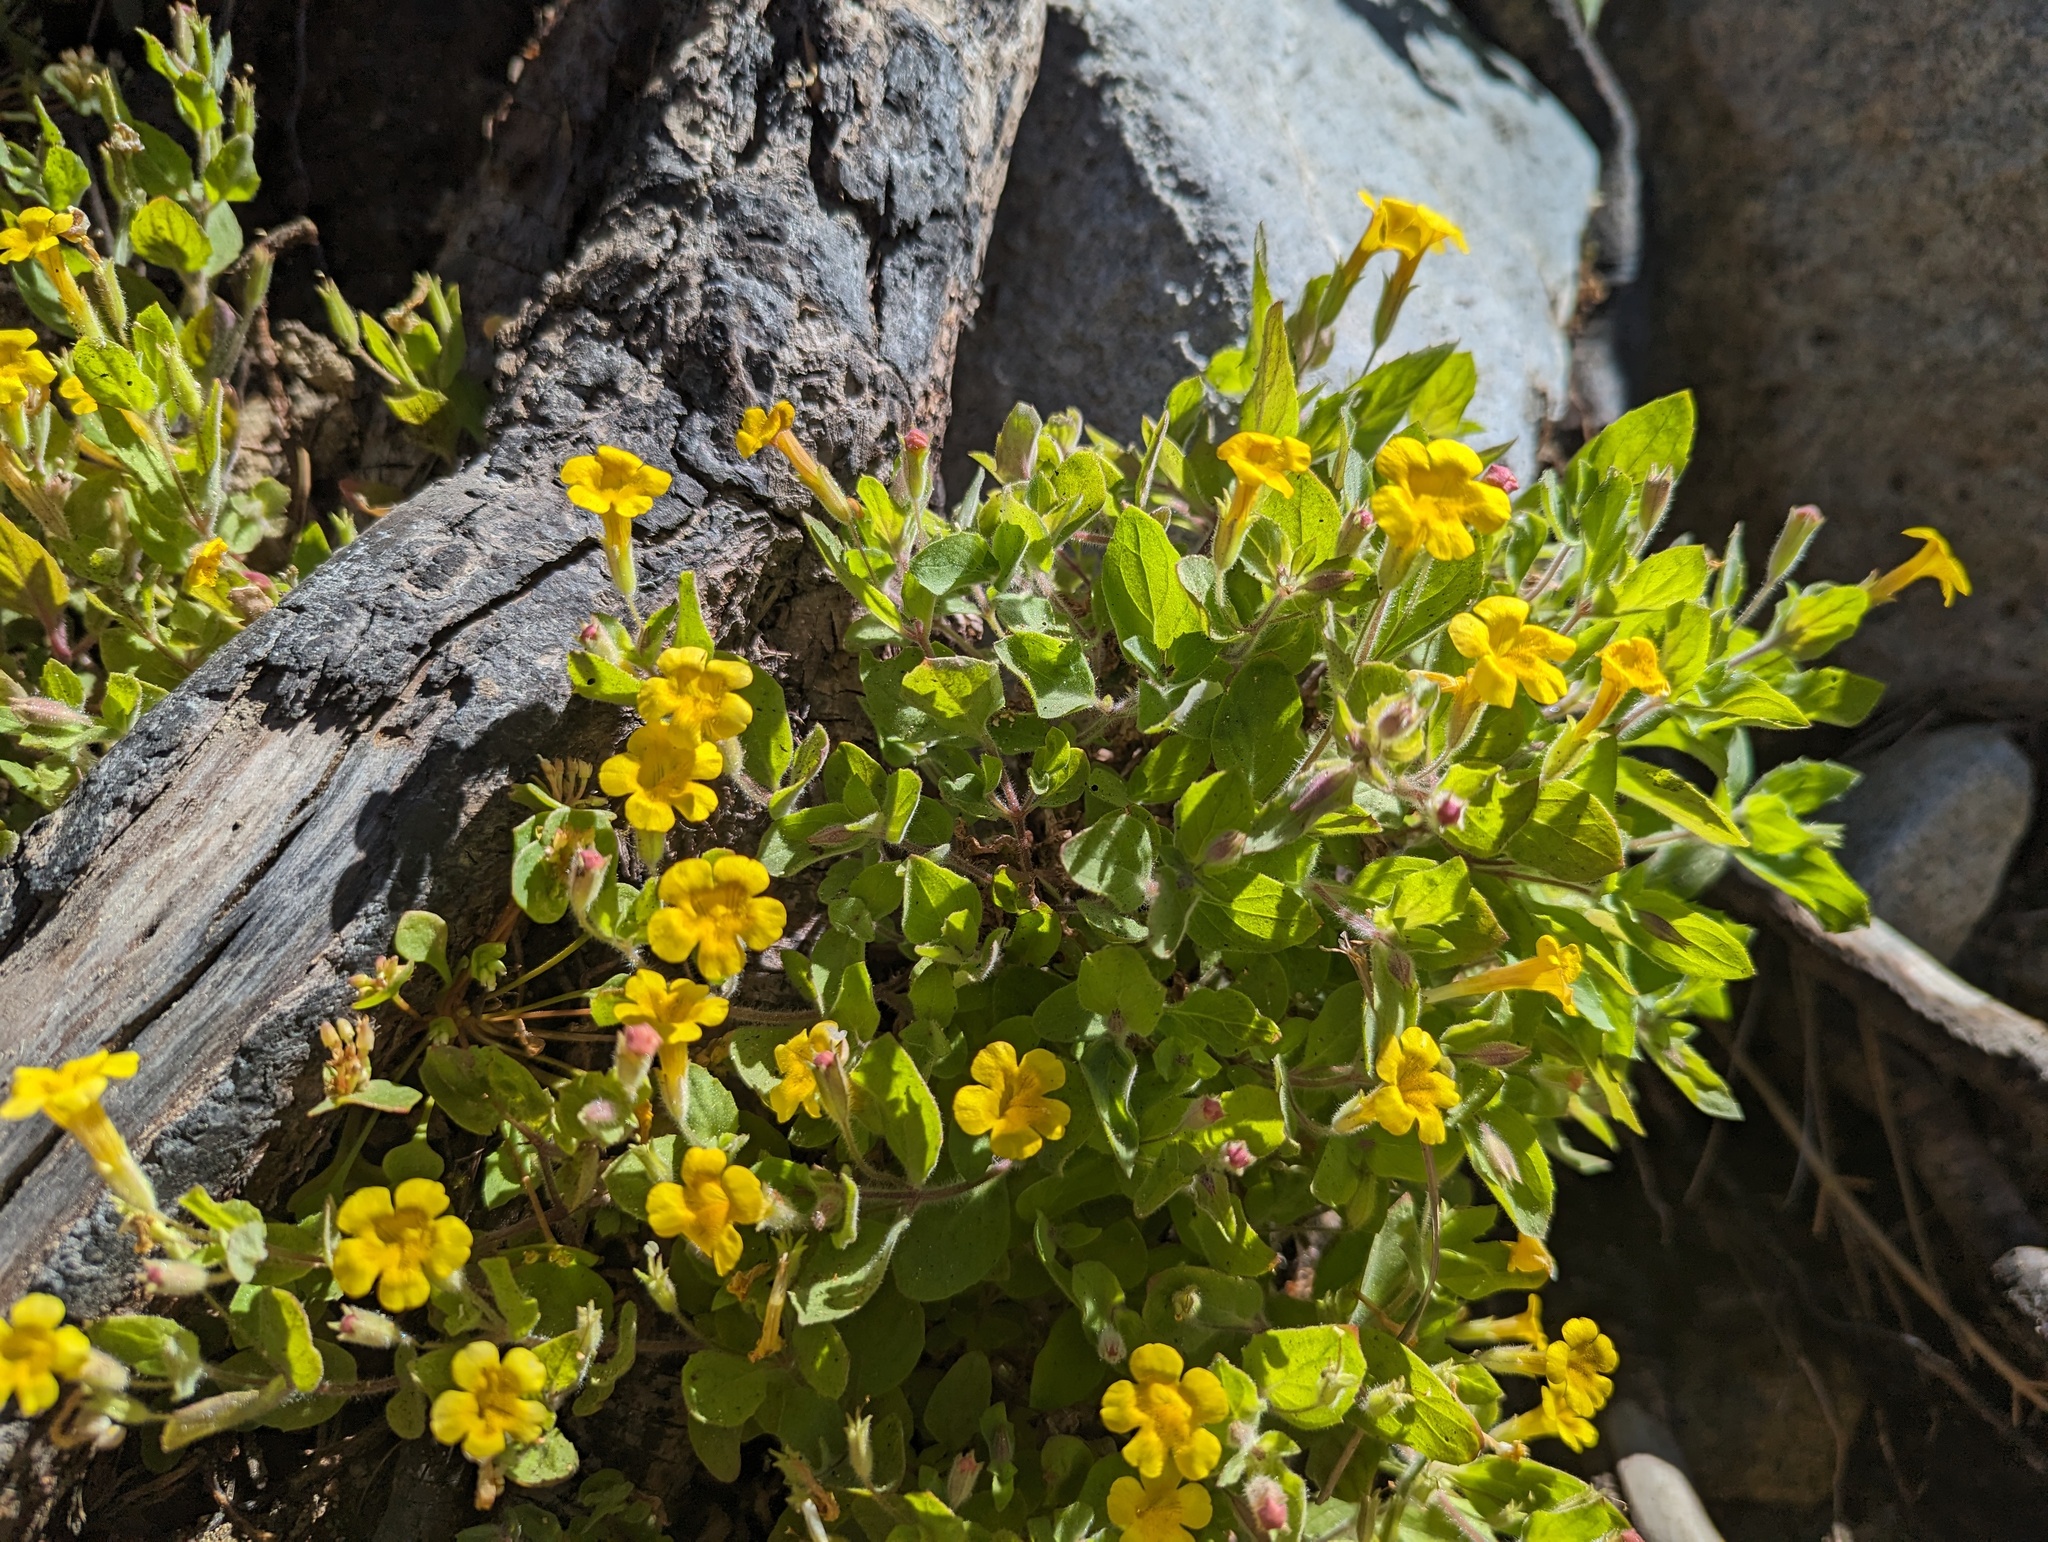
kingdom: Plantae
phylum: Tracheophyta
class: Magnoliopsida
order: Lamiales
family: Phrymaceae
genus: Erythranthe
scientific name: Erythranthe moschata
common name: Muskflower
